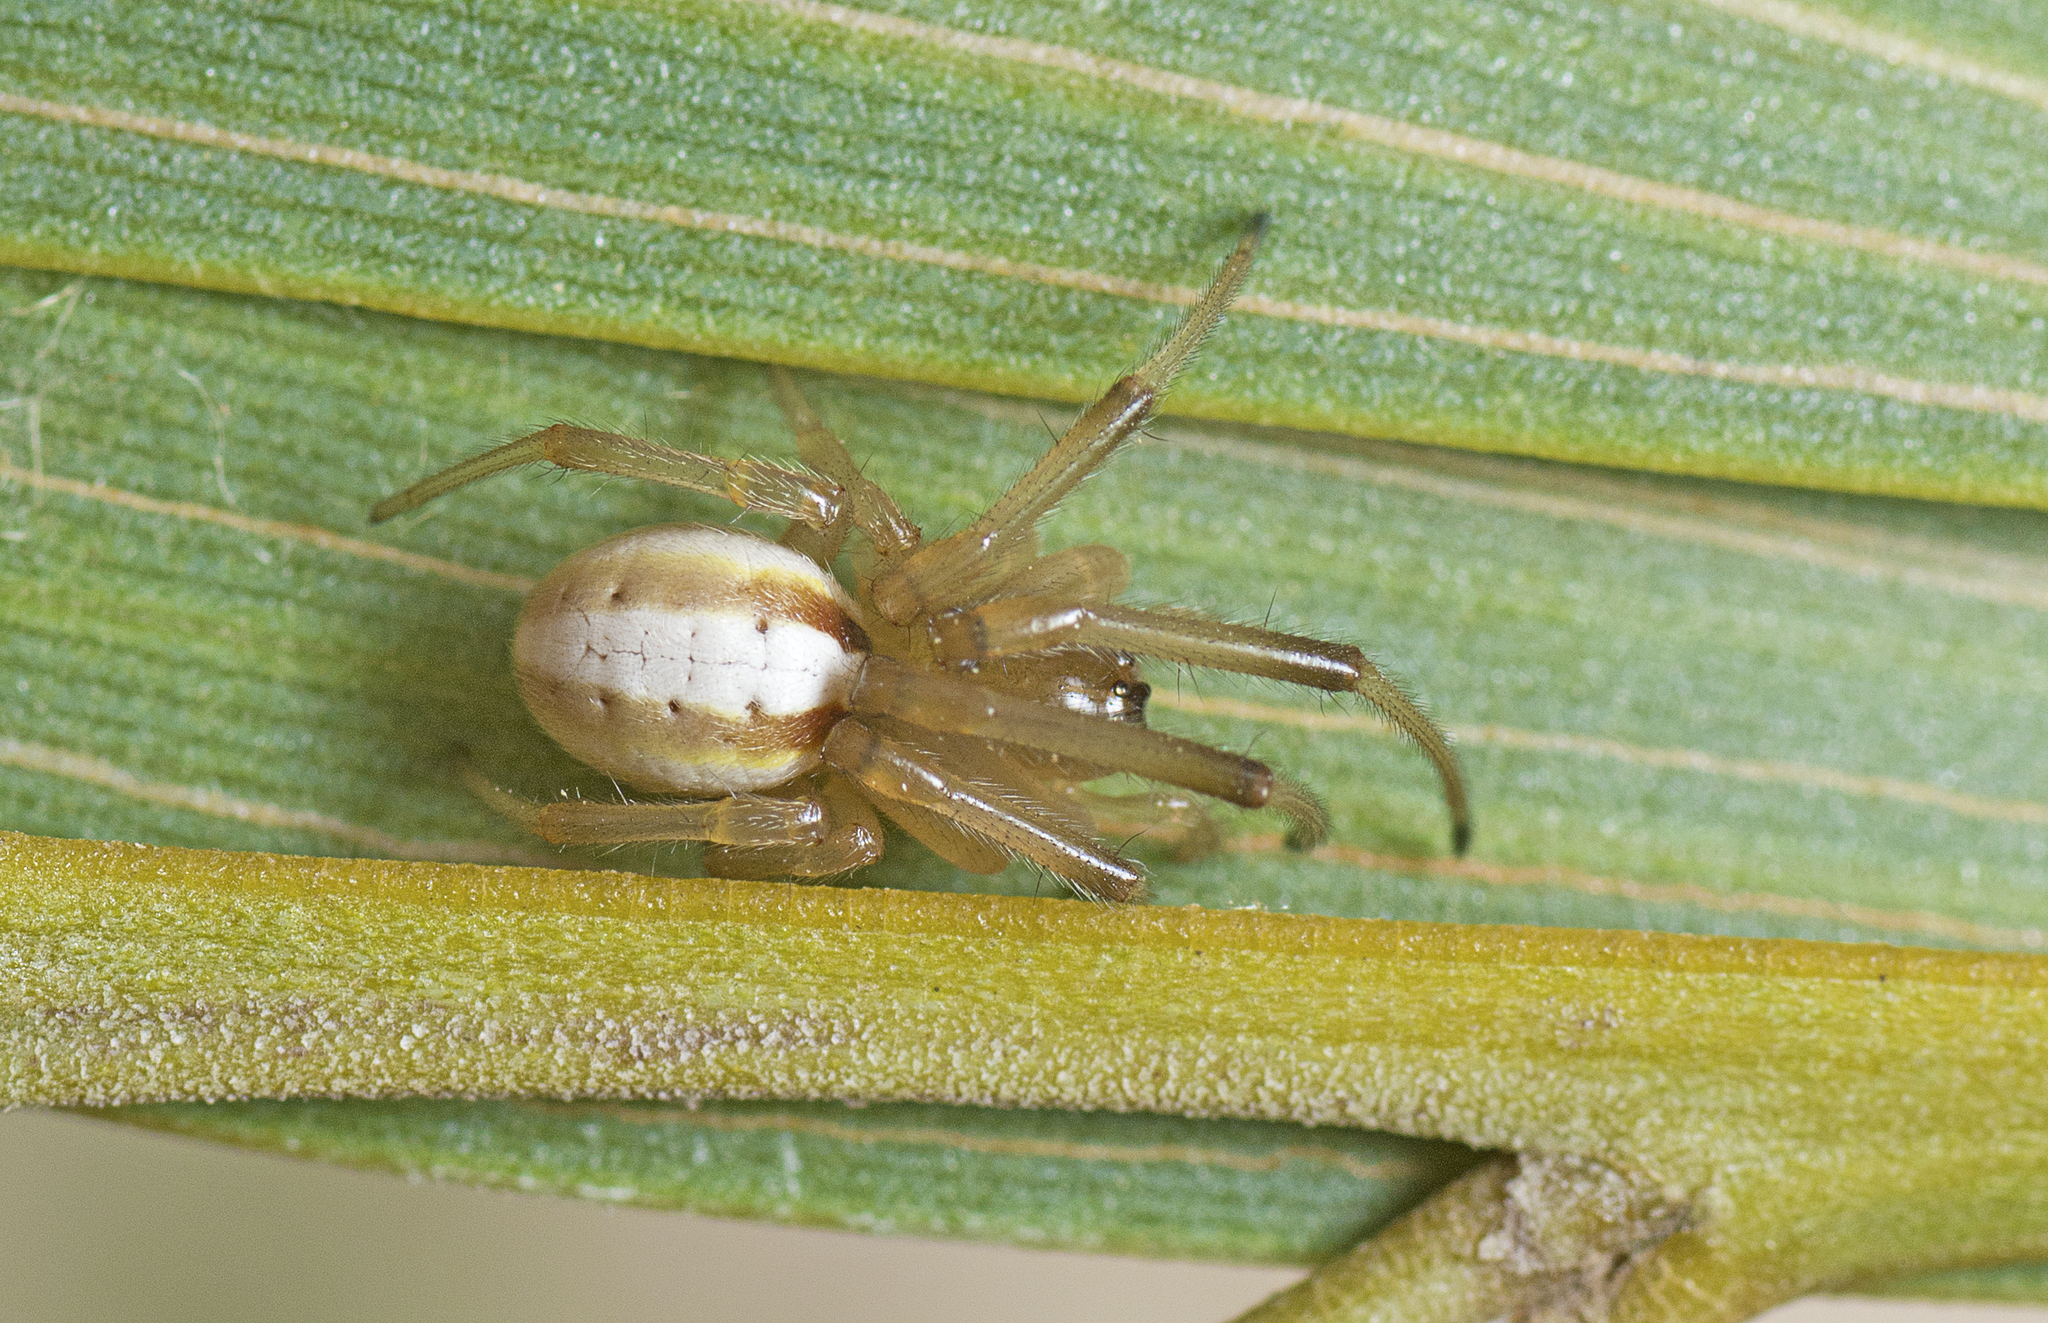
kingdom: Animalia
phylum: Arthropoda
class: Arachnida
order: Araneae
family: Araneidae
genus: Deliochus
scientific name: Deliochus idoneus
